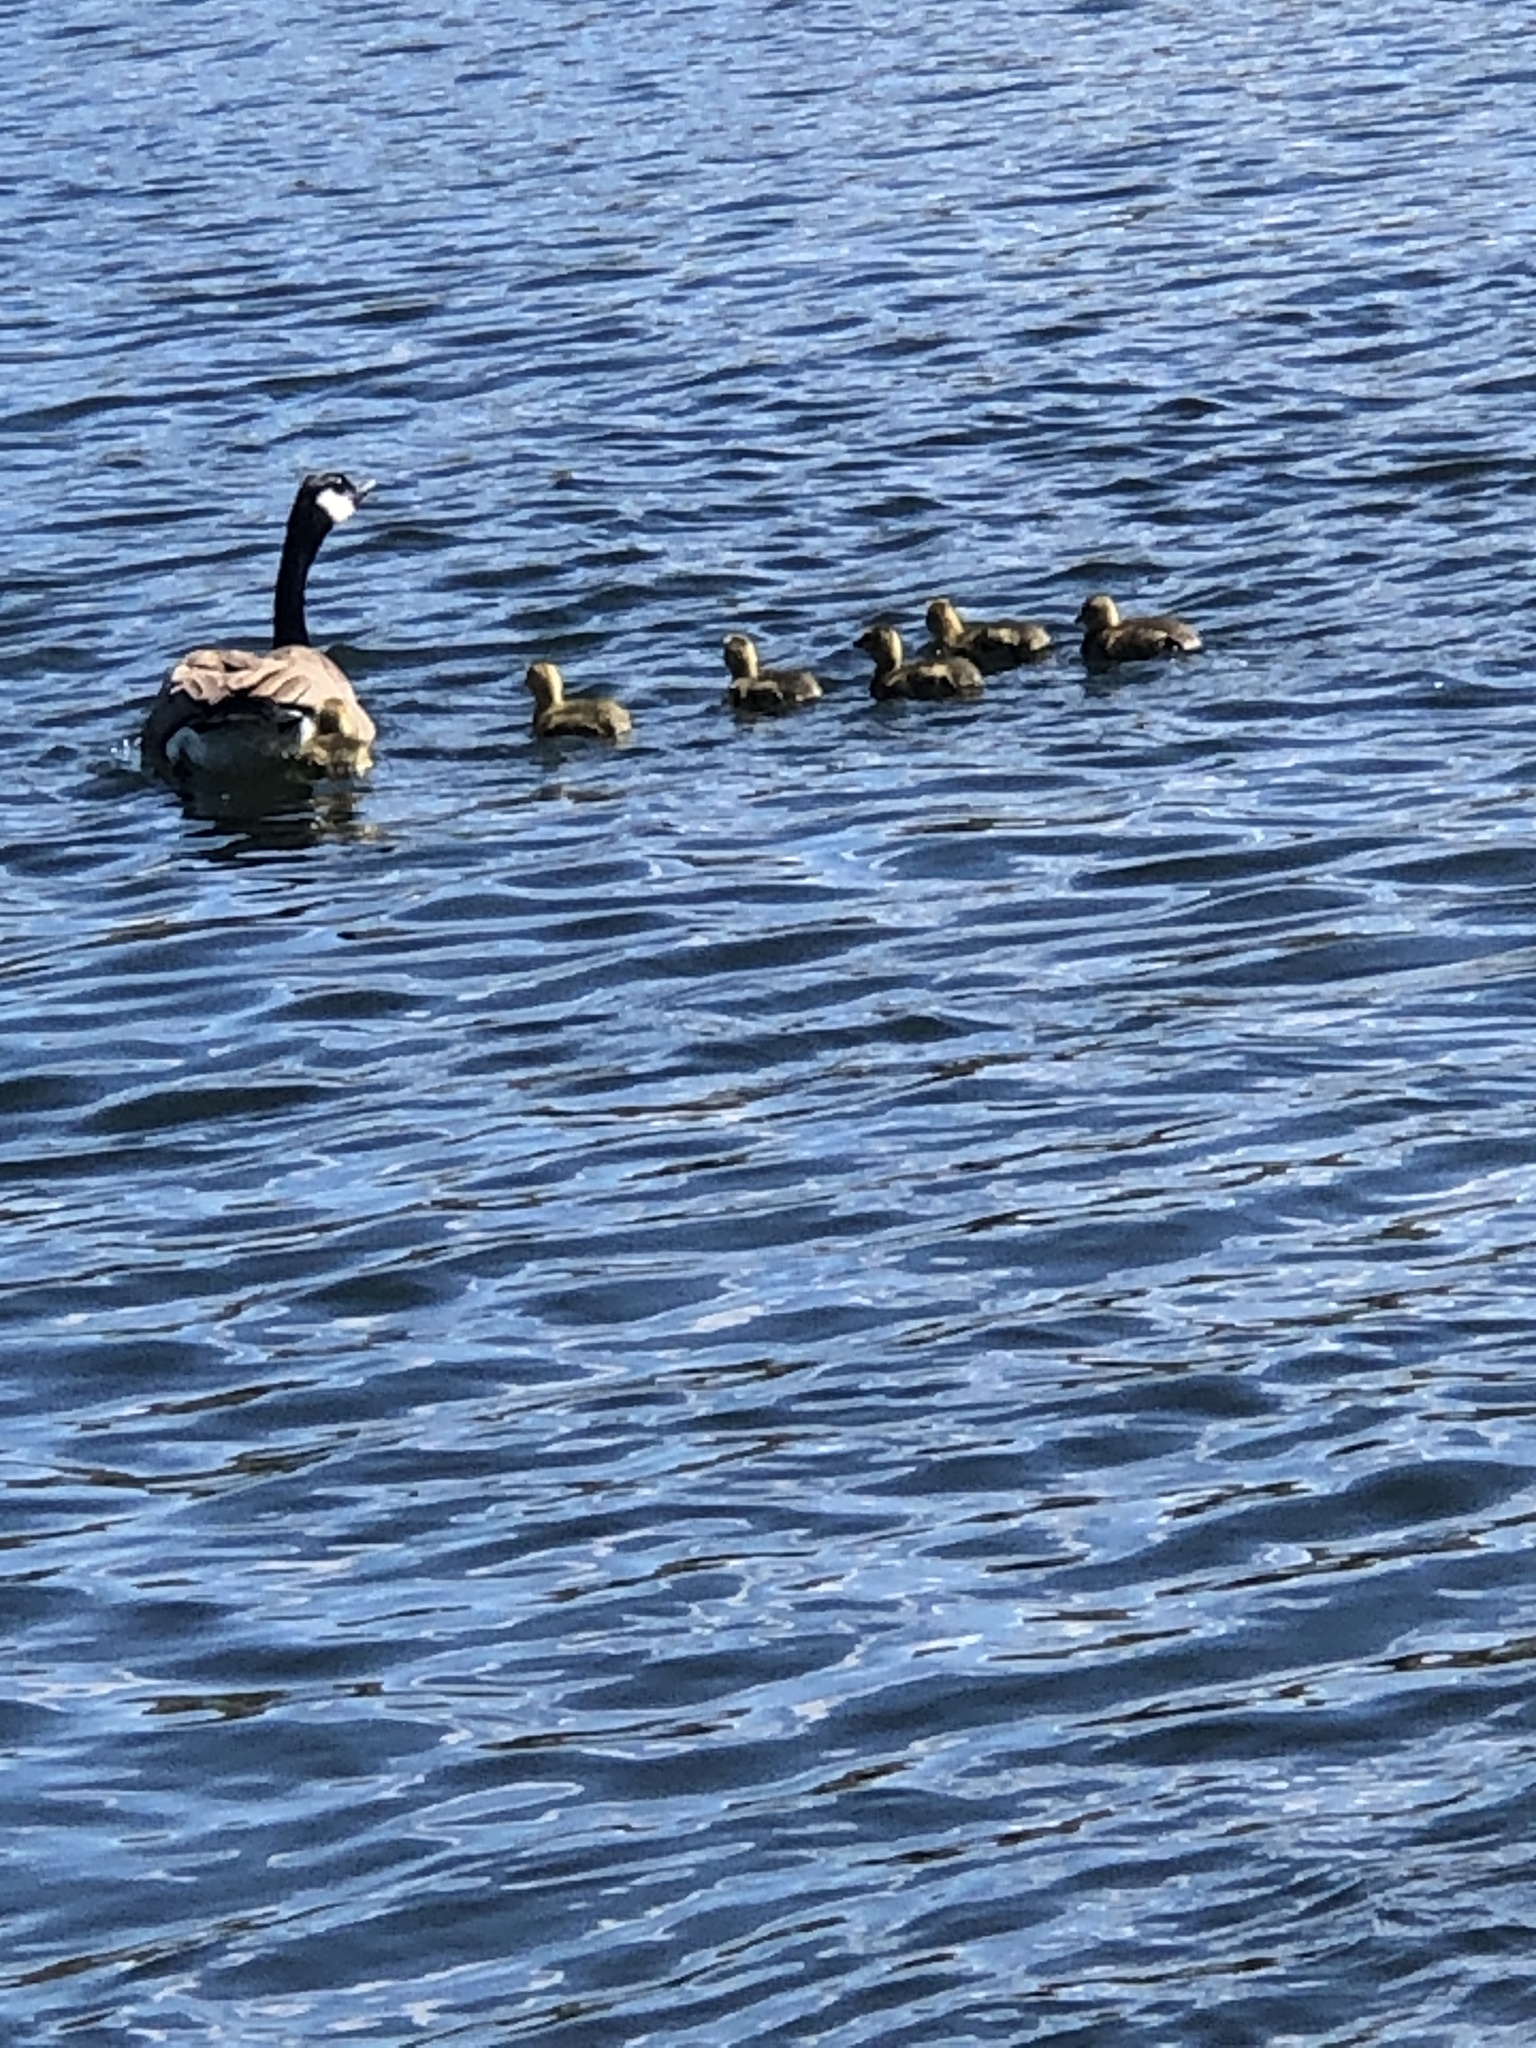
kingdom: Animalia
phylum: Chordata
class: Aves
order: Anseriformes
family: Anatidae
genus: Branta
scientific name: Branta canadensis
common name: Canada goose
